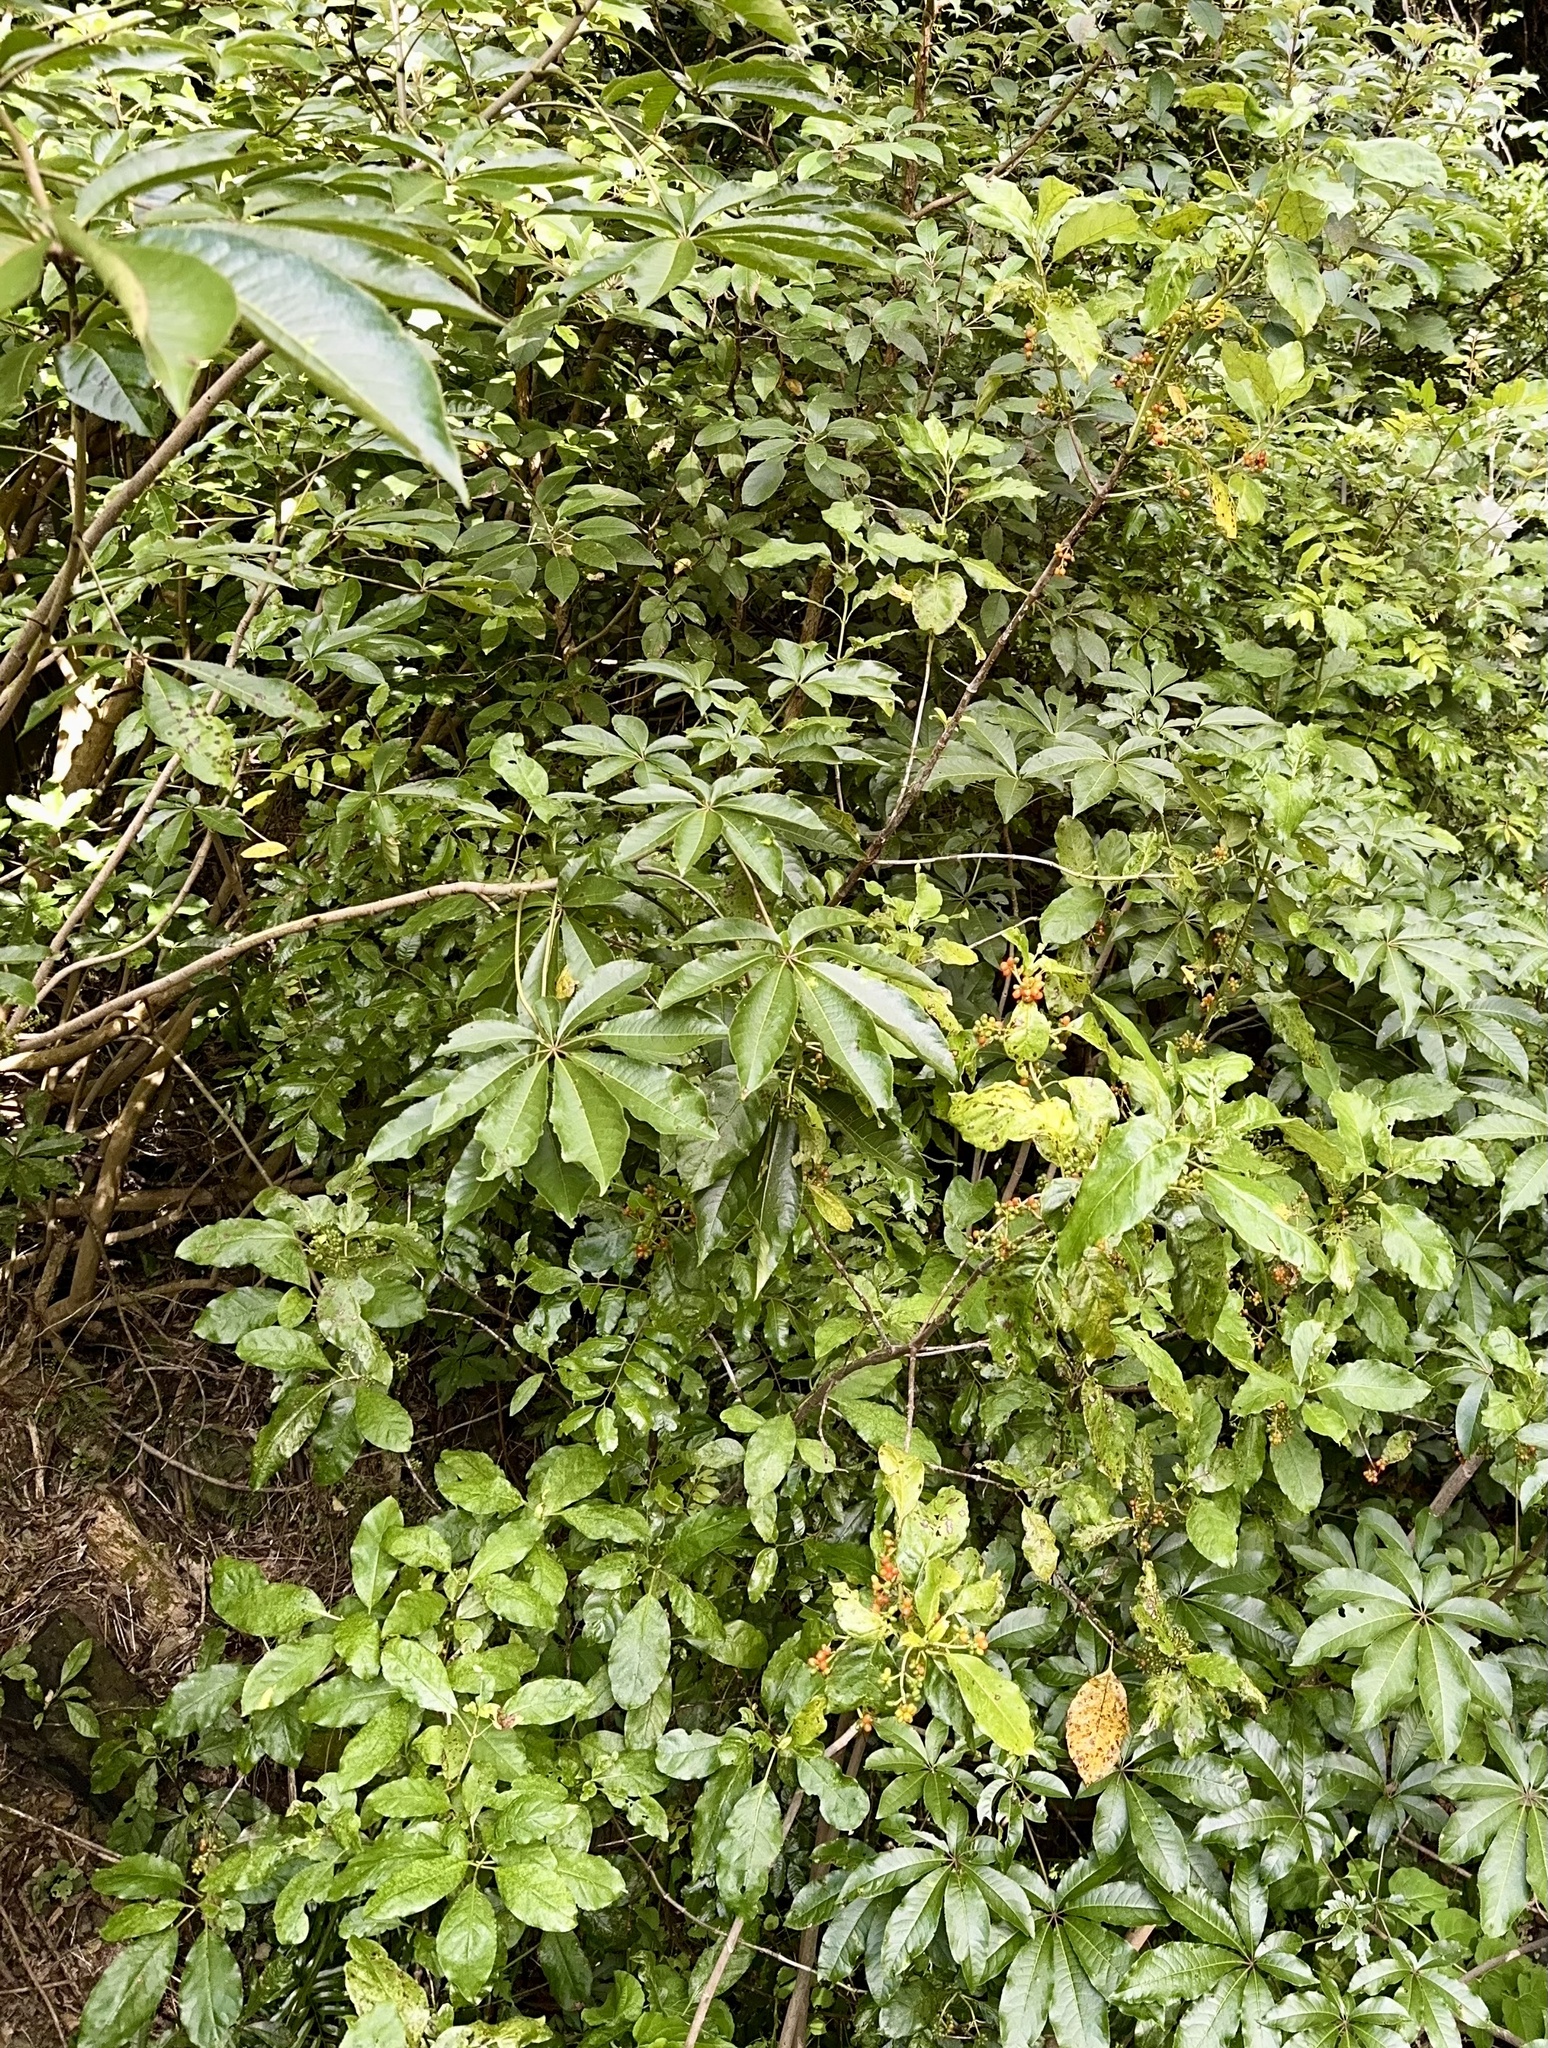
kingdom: Plantae
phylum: Tracheophyta
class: Magnoliopsida
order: Apiales
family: Araliaceae
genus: Schefflera
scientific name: Schefflera digitata
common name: Pate
